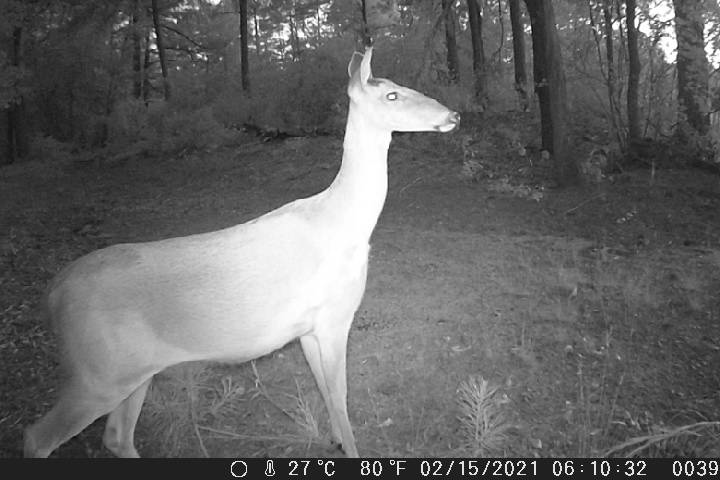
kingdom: Animalia
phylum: Chordata
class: Mammalia
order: Artiodactyla
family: Cervidae
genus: Odocoileus
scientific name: Odocoileus virginianus
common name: White-tailed deer
